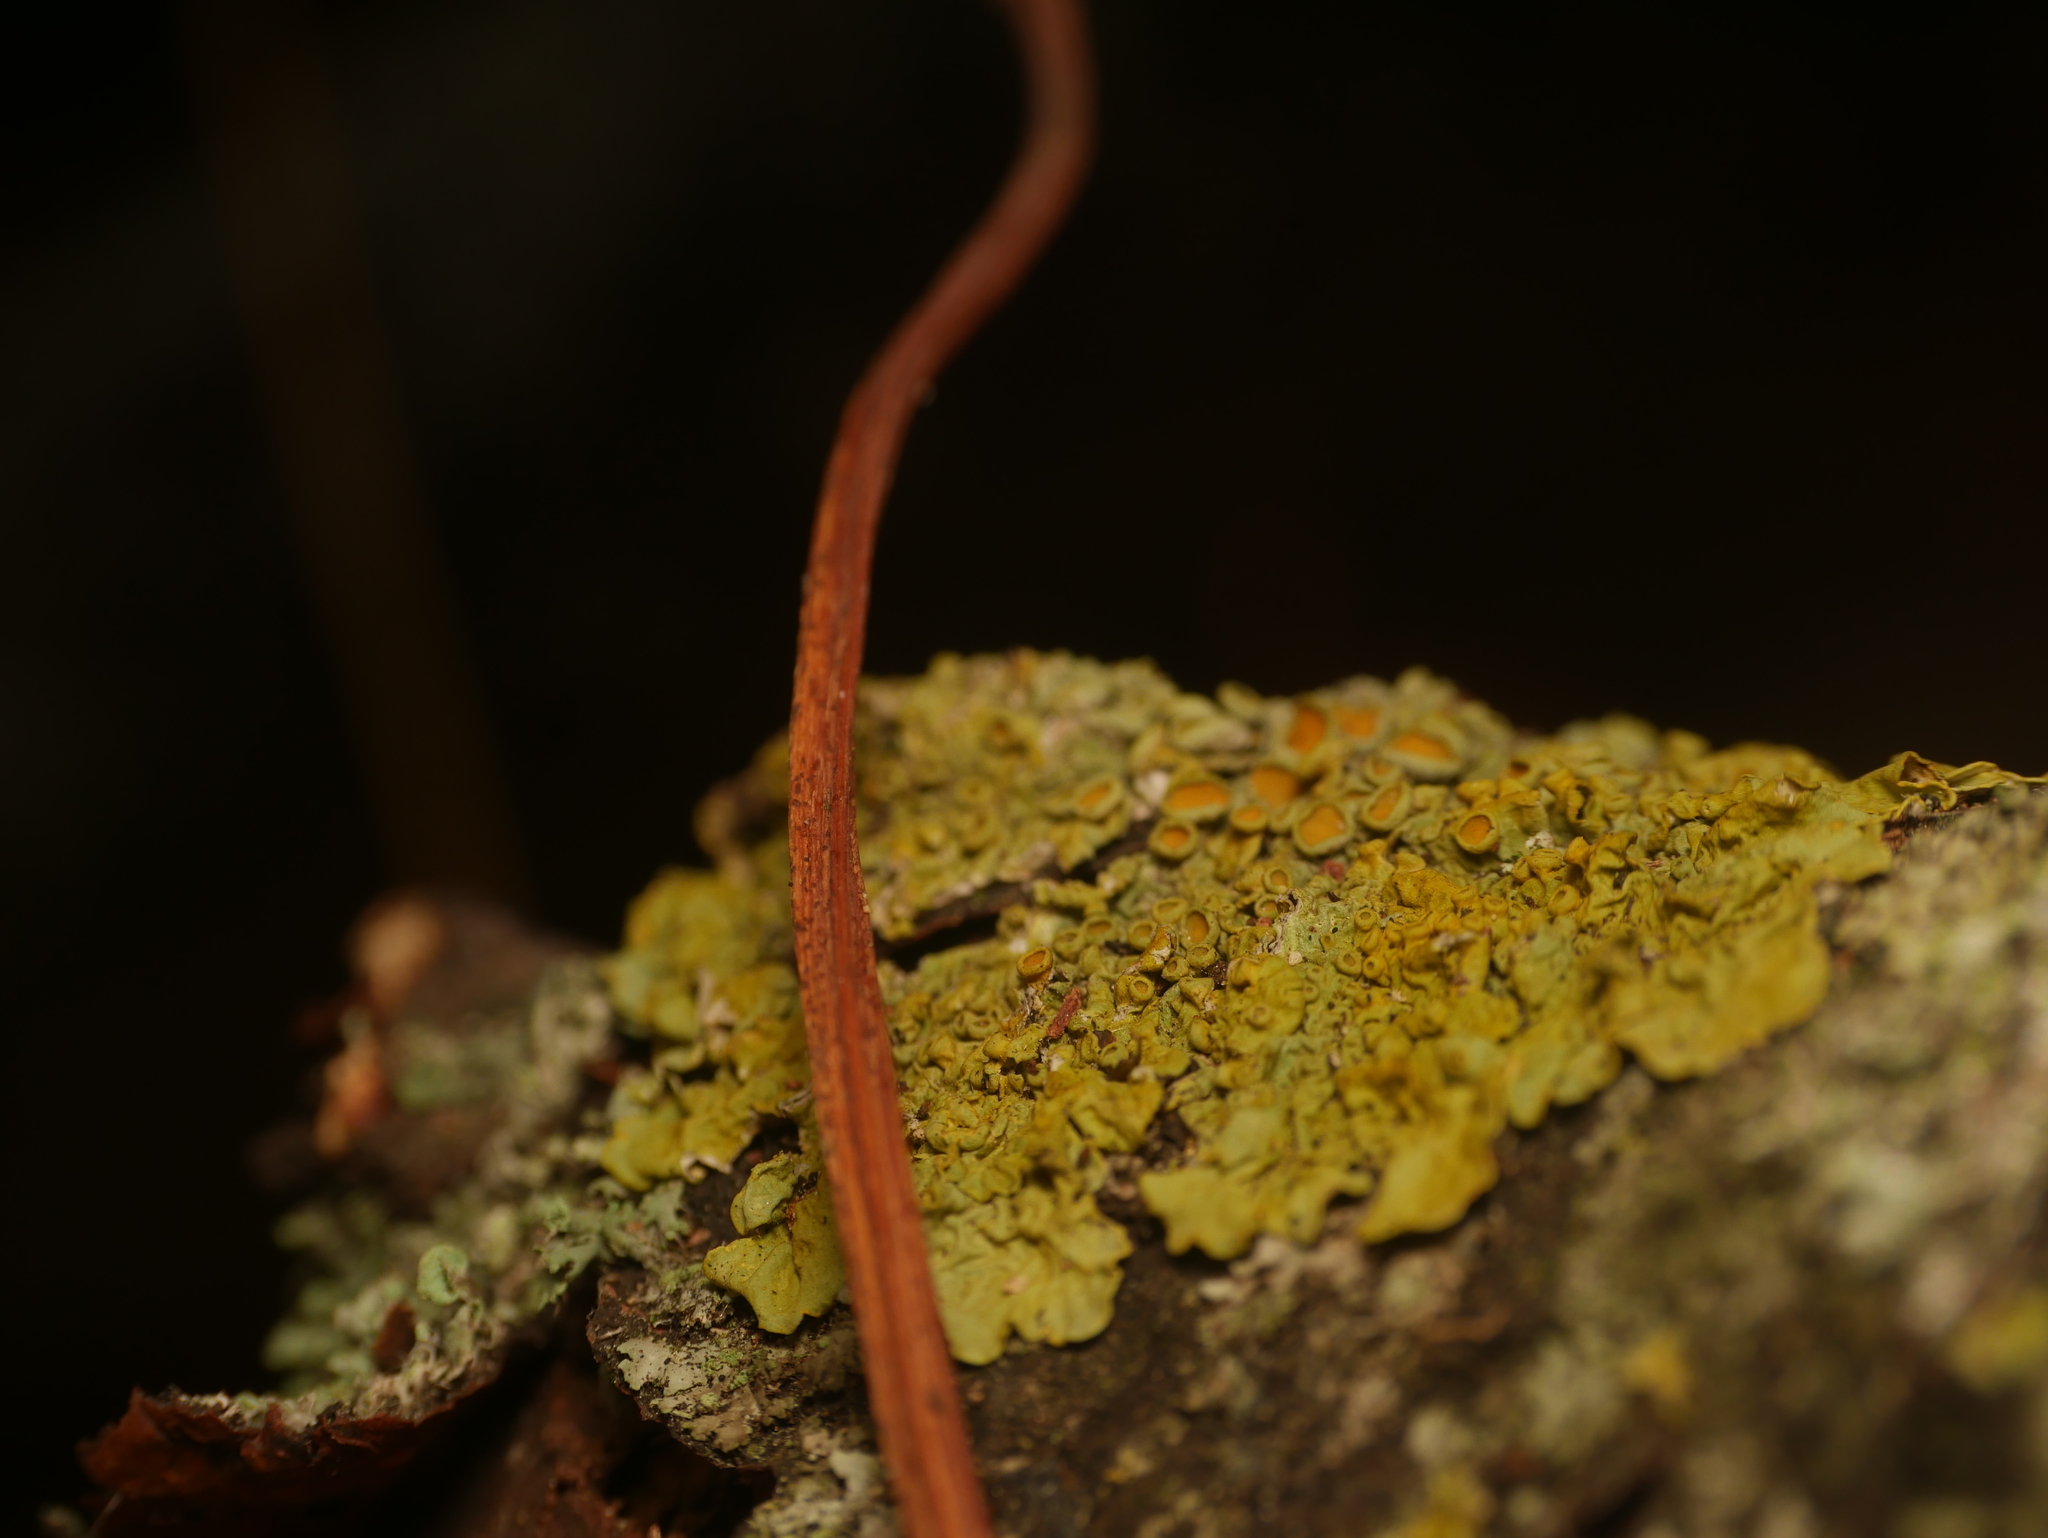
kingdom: Fungi
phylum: Ascomycota
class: Lecanoromycetes
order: Teloschistales
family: Teloschistaceae
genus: Xanthoria
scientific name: Xanthoria parietina
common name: Common orange lichen
